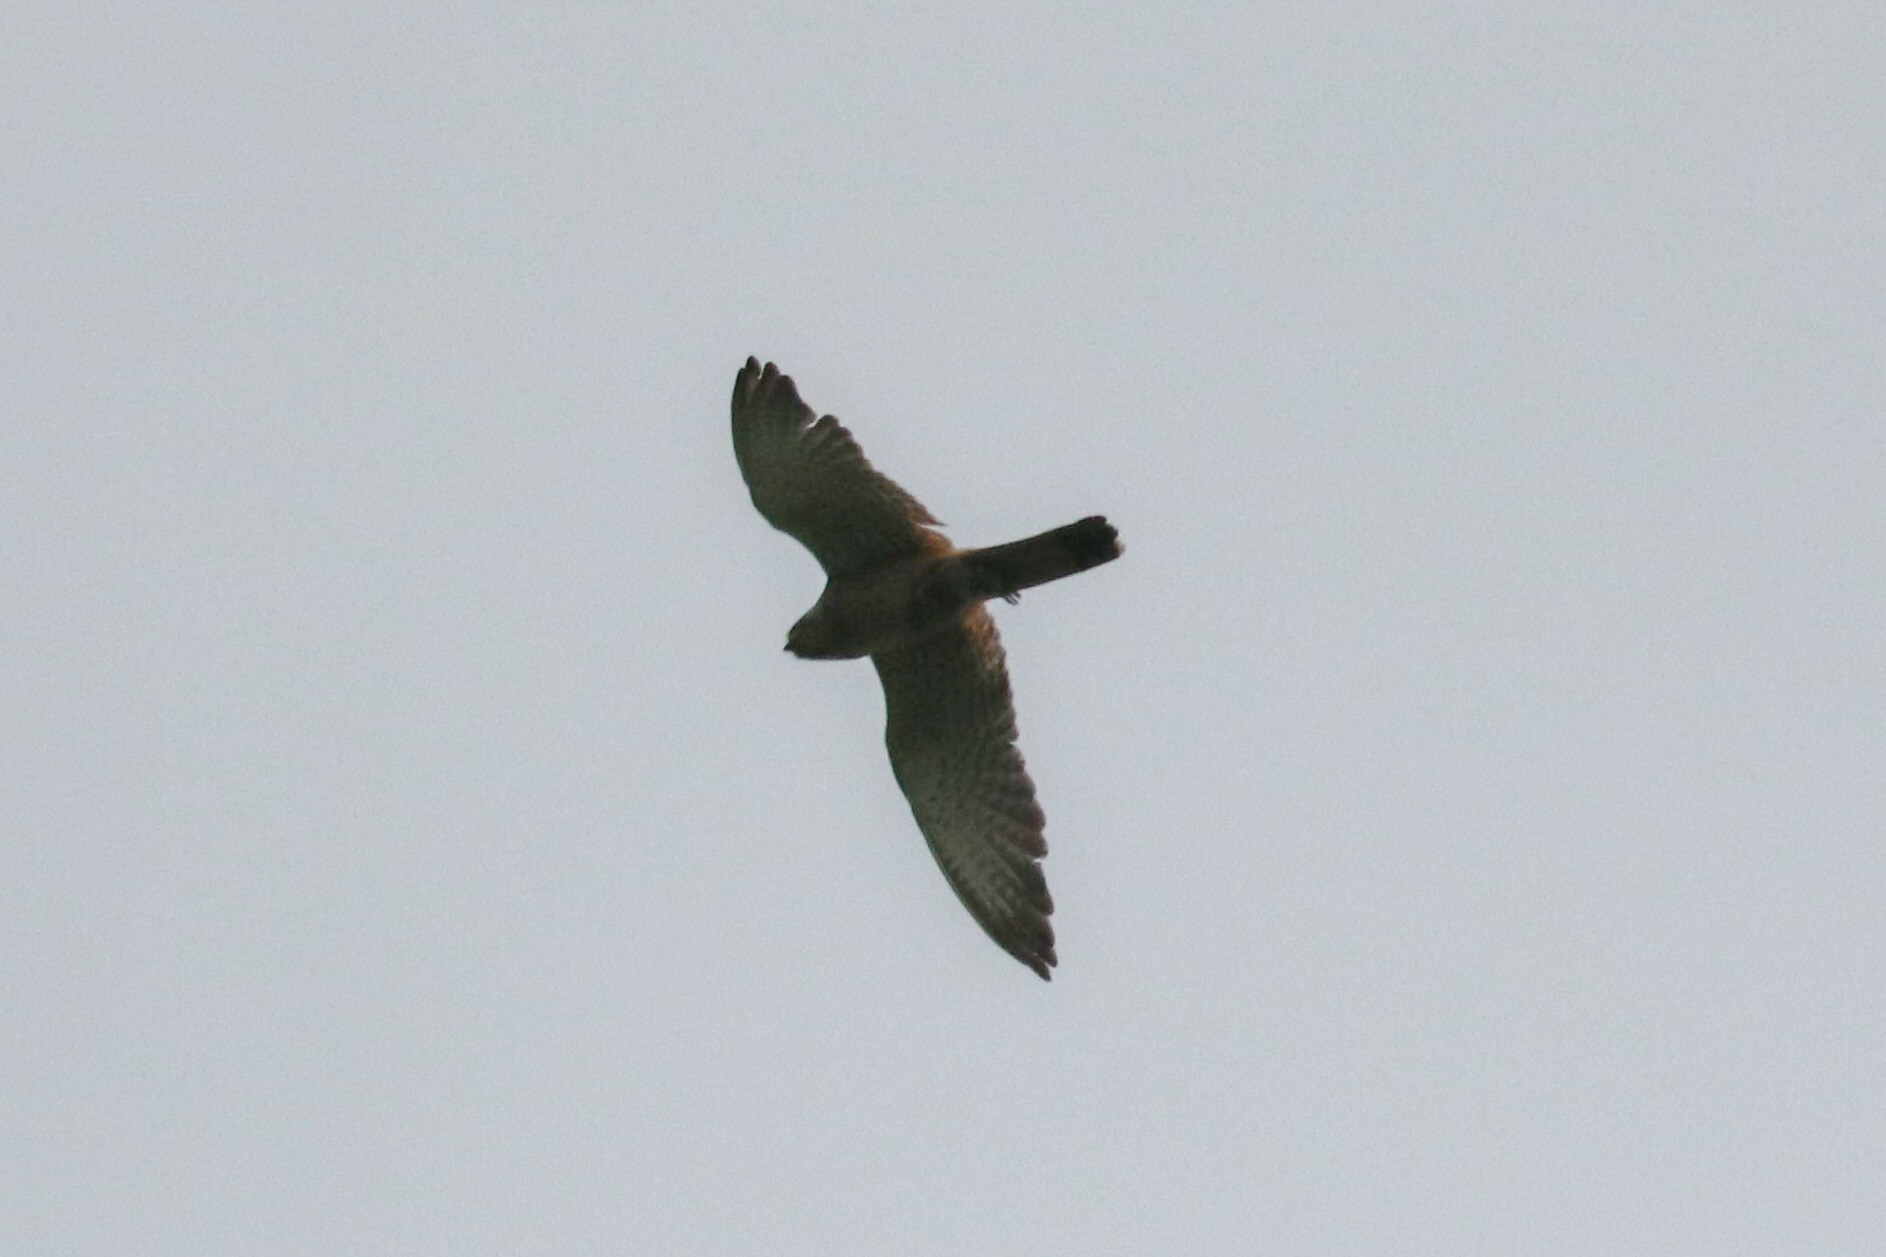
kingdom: Animalia
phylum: Chordata
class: Aves
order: Falconiformes
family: Falconidae
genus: Falco
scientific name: Falco tinnunculus
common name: Common kestrel
